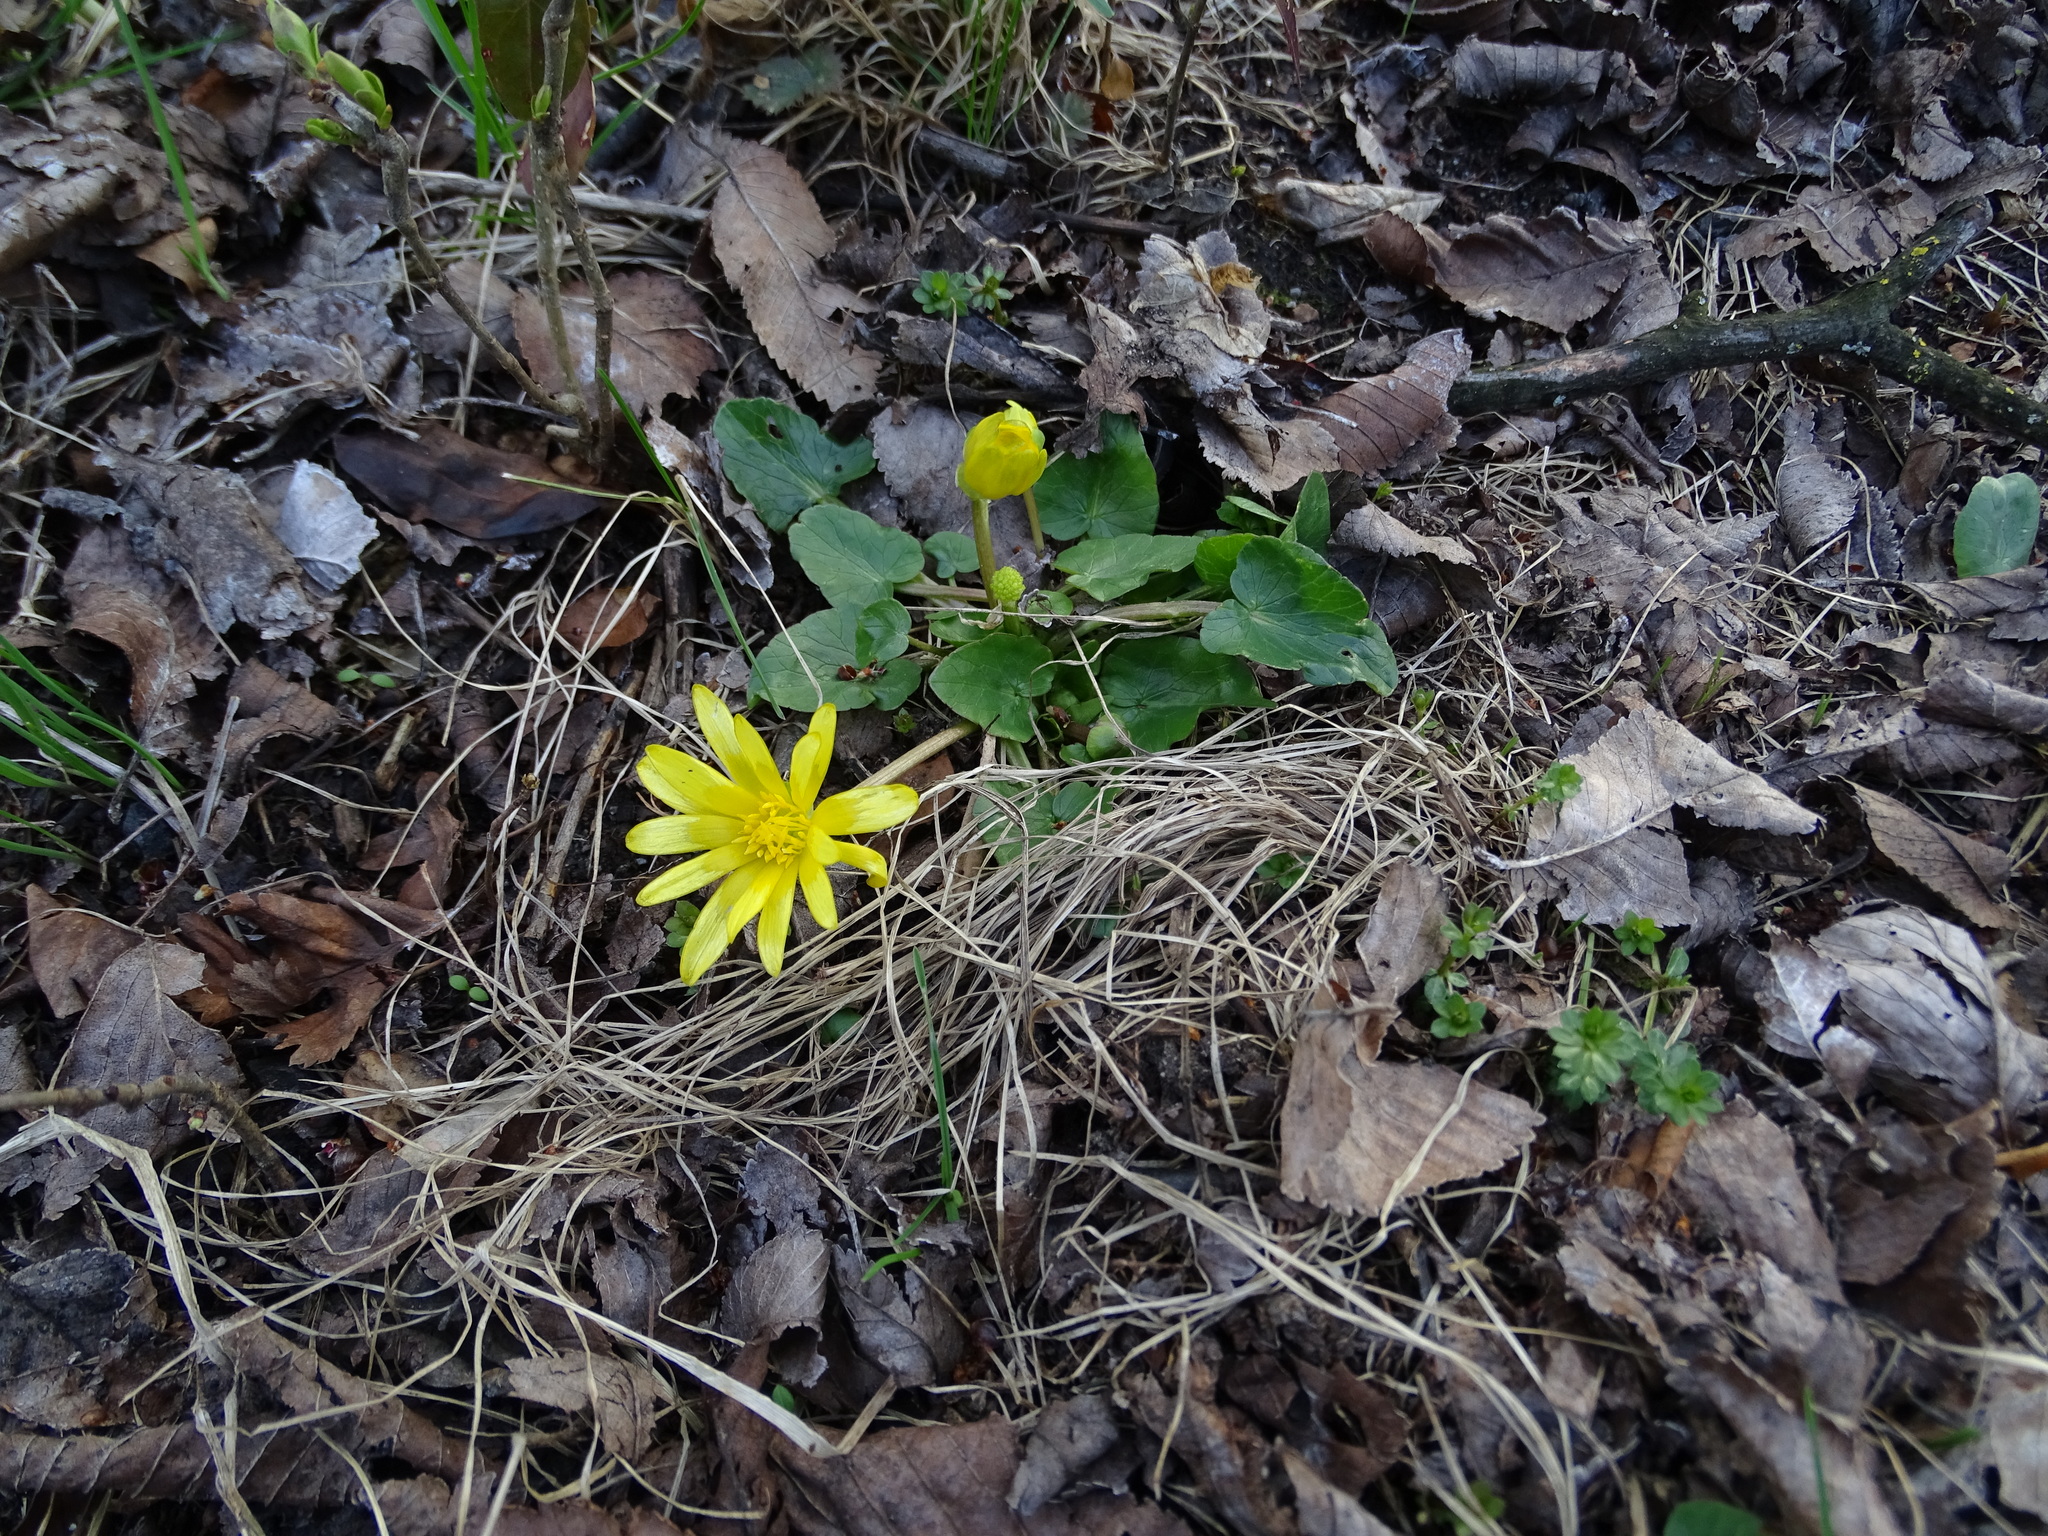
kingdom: Plantae
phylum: Tracheophyta
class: Magnoliopsida
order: Ranunculales
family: Ranunculaceae
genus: Ficaria
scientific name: Ficaria verna
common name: Lesser celandine
